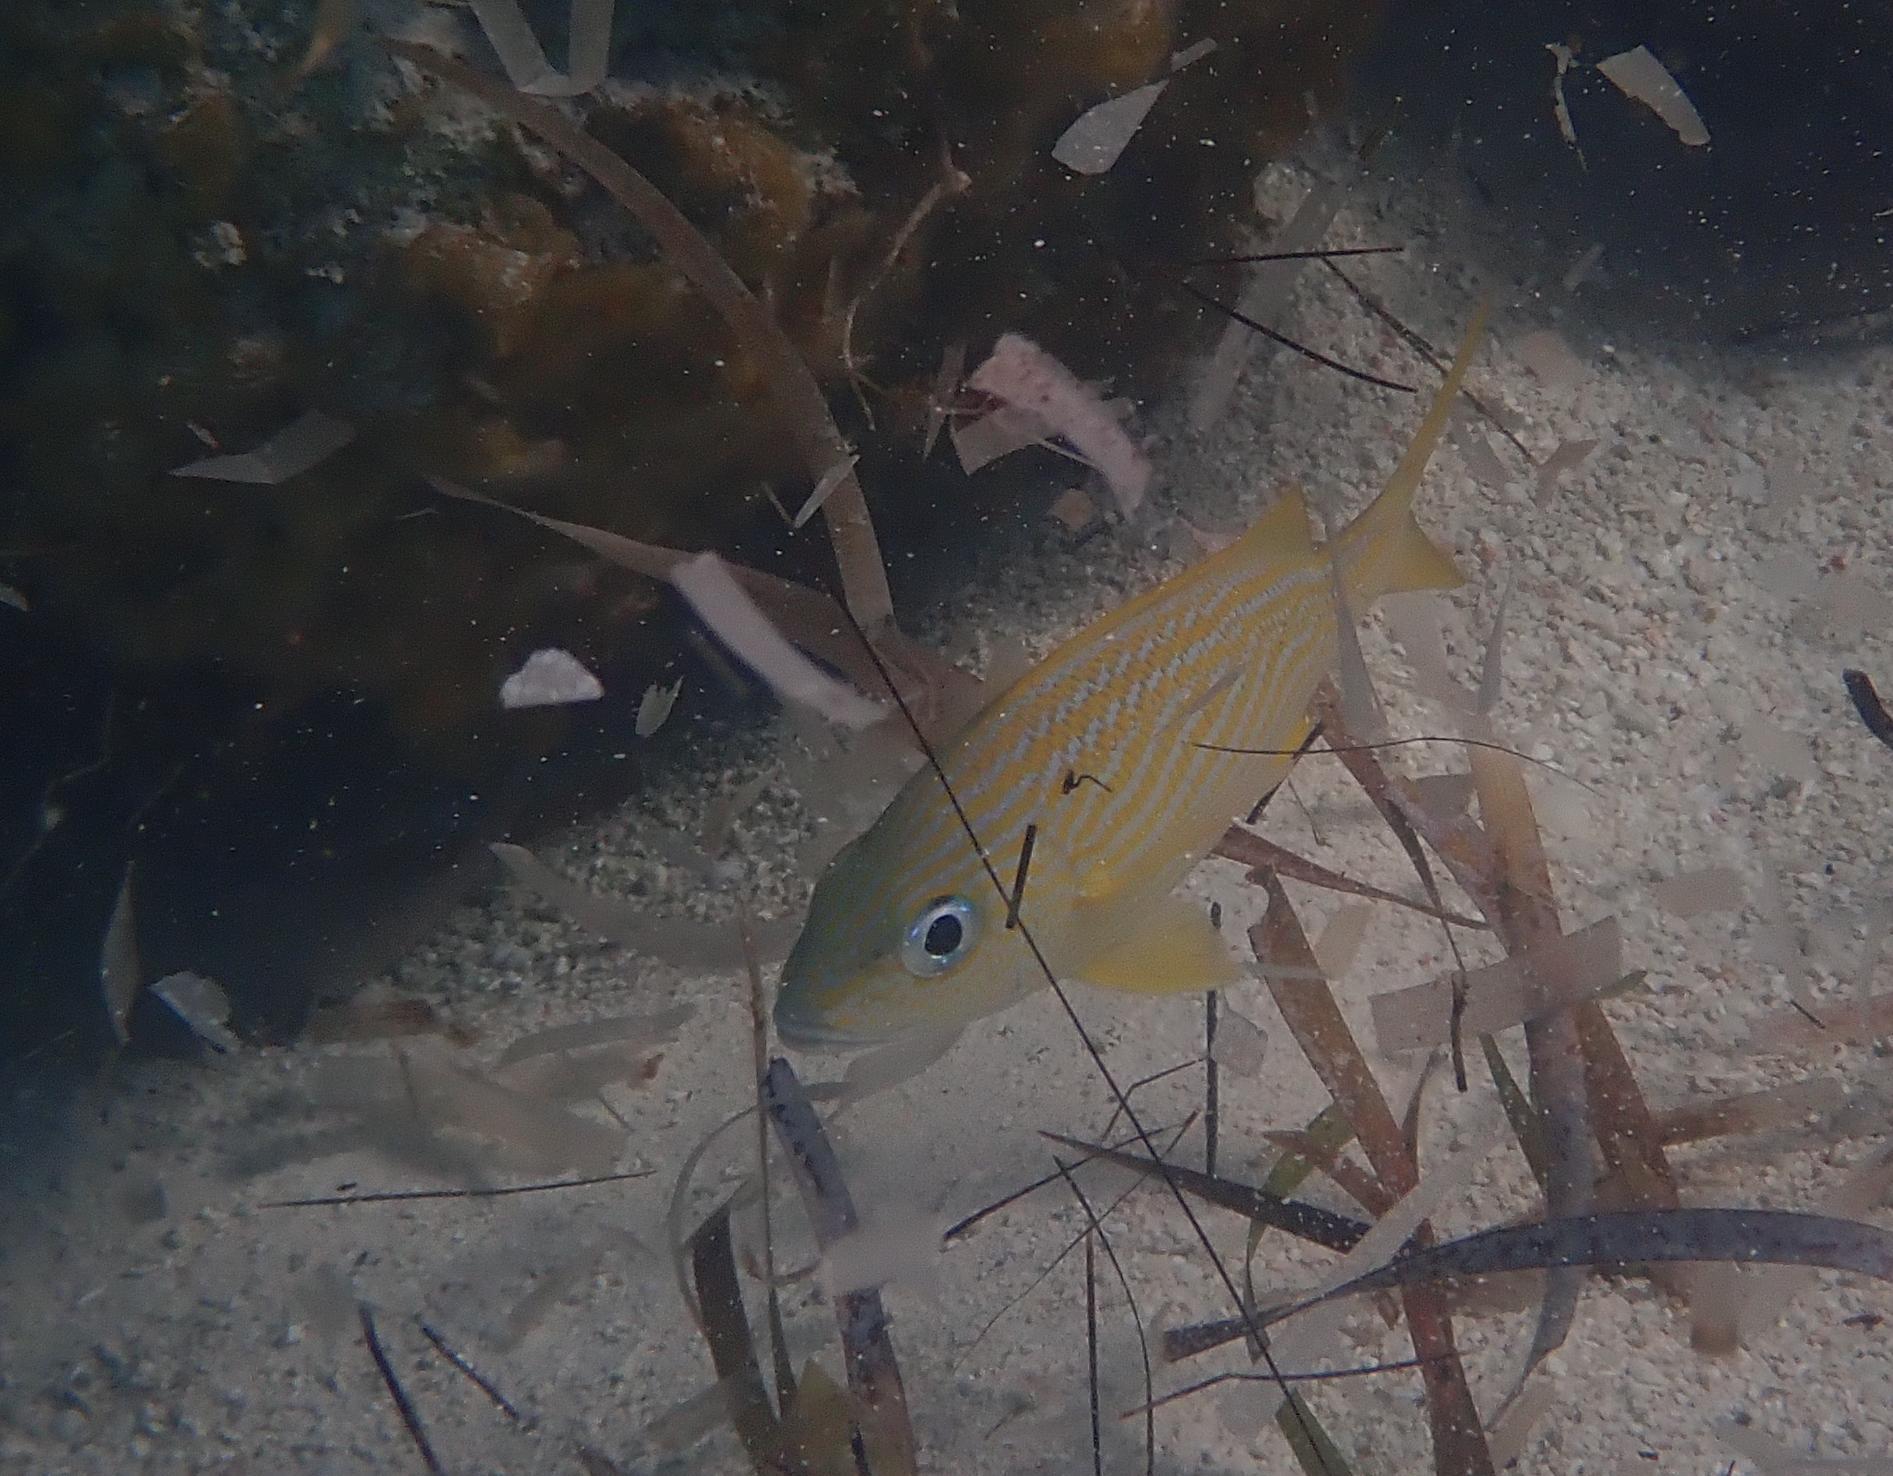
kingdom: Animalia
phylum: Chordata
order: Perciformes
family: Haemulidae
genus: Haemulon
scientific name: Haemulon flavolineatum
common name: French grunt
